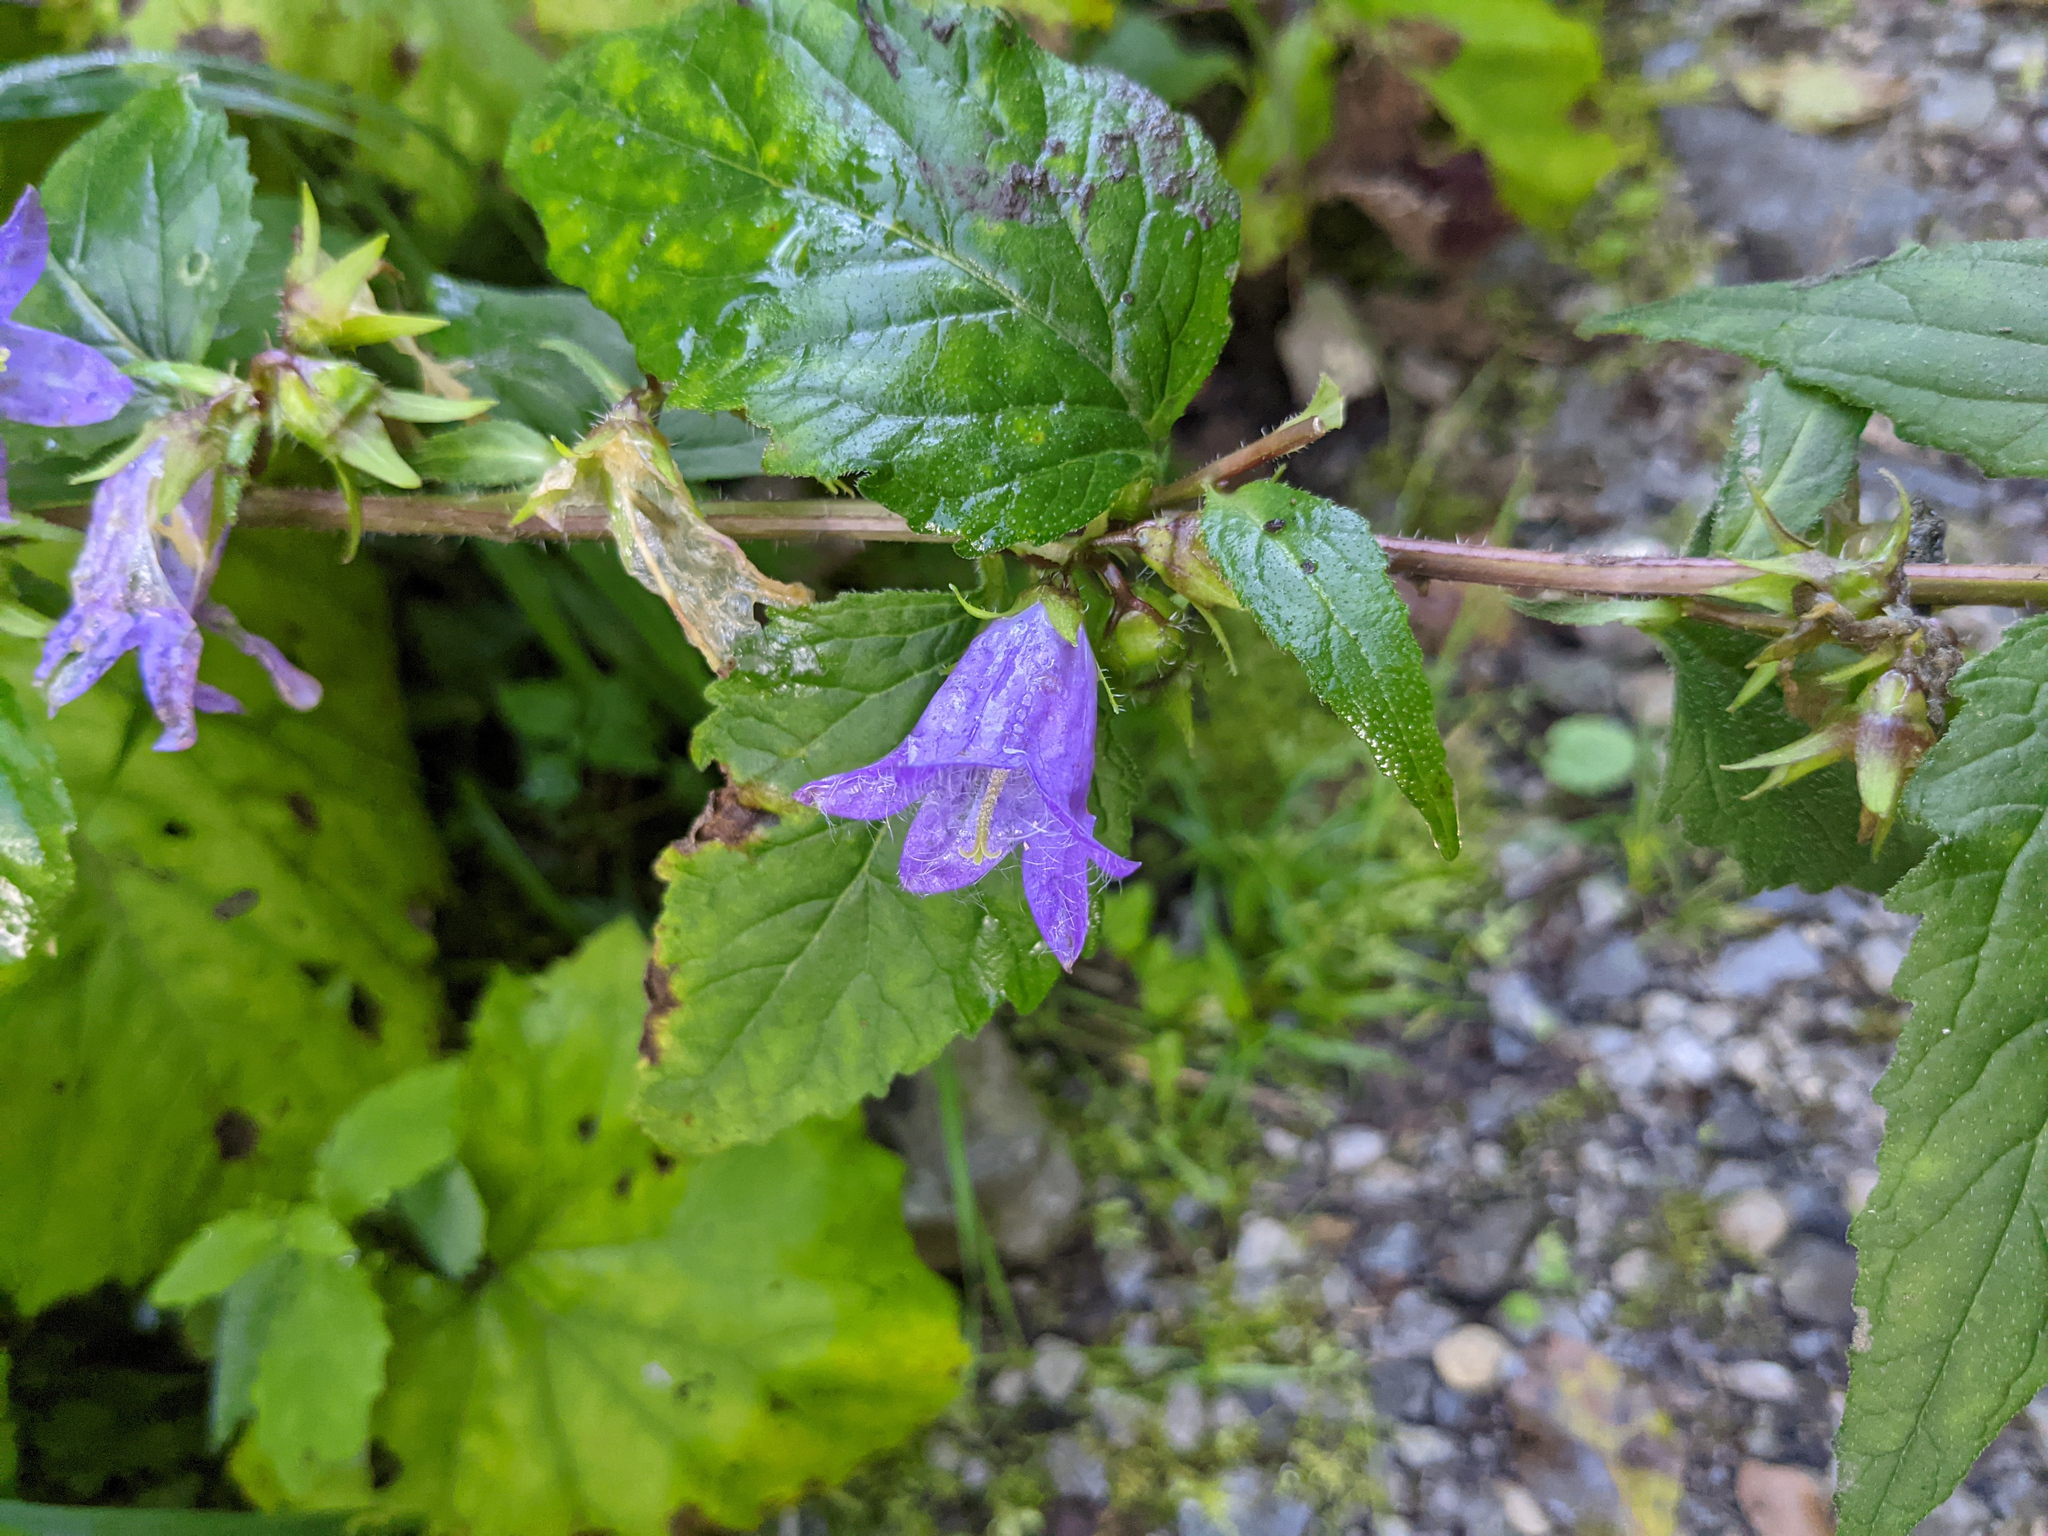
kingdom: Plantae
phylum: Tracheophyta
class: Magnoliopsida
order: Asterales
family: Campanulaceae
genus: Campanula
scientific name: Campanula trachelium
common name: Nettle-leaved bellflower
